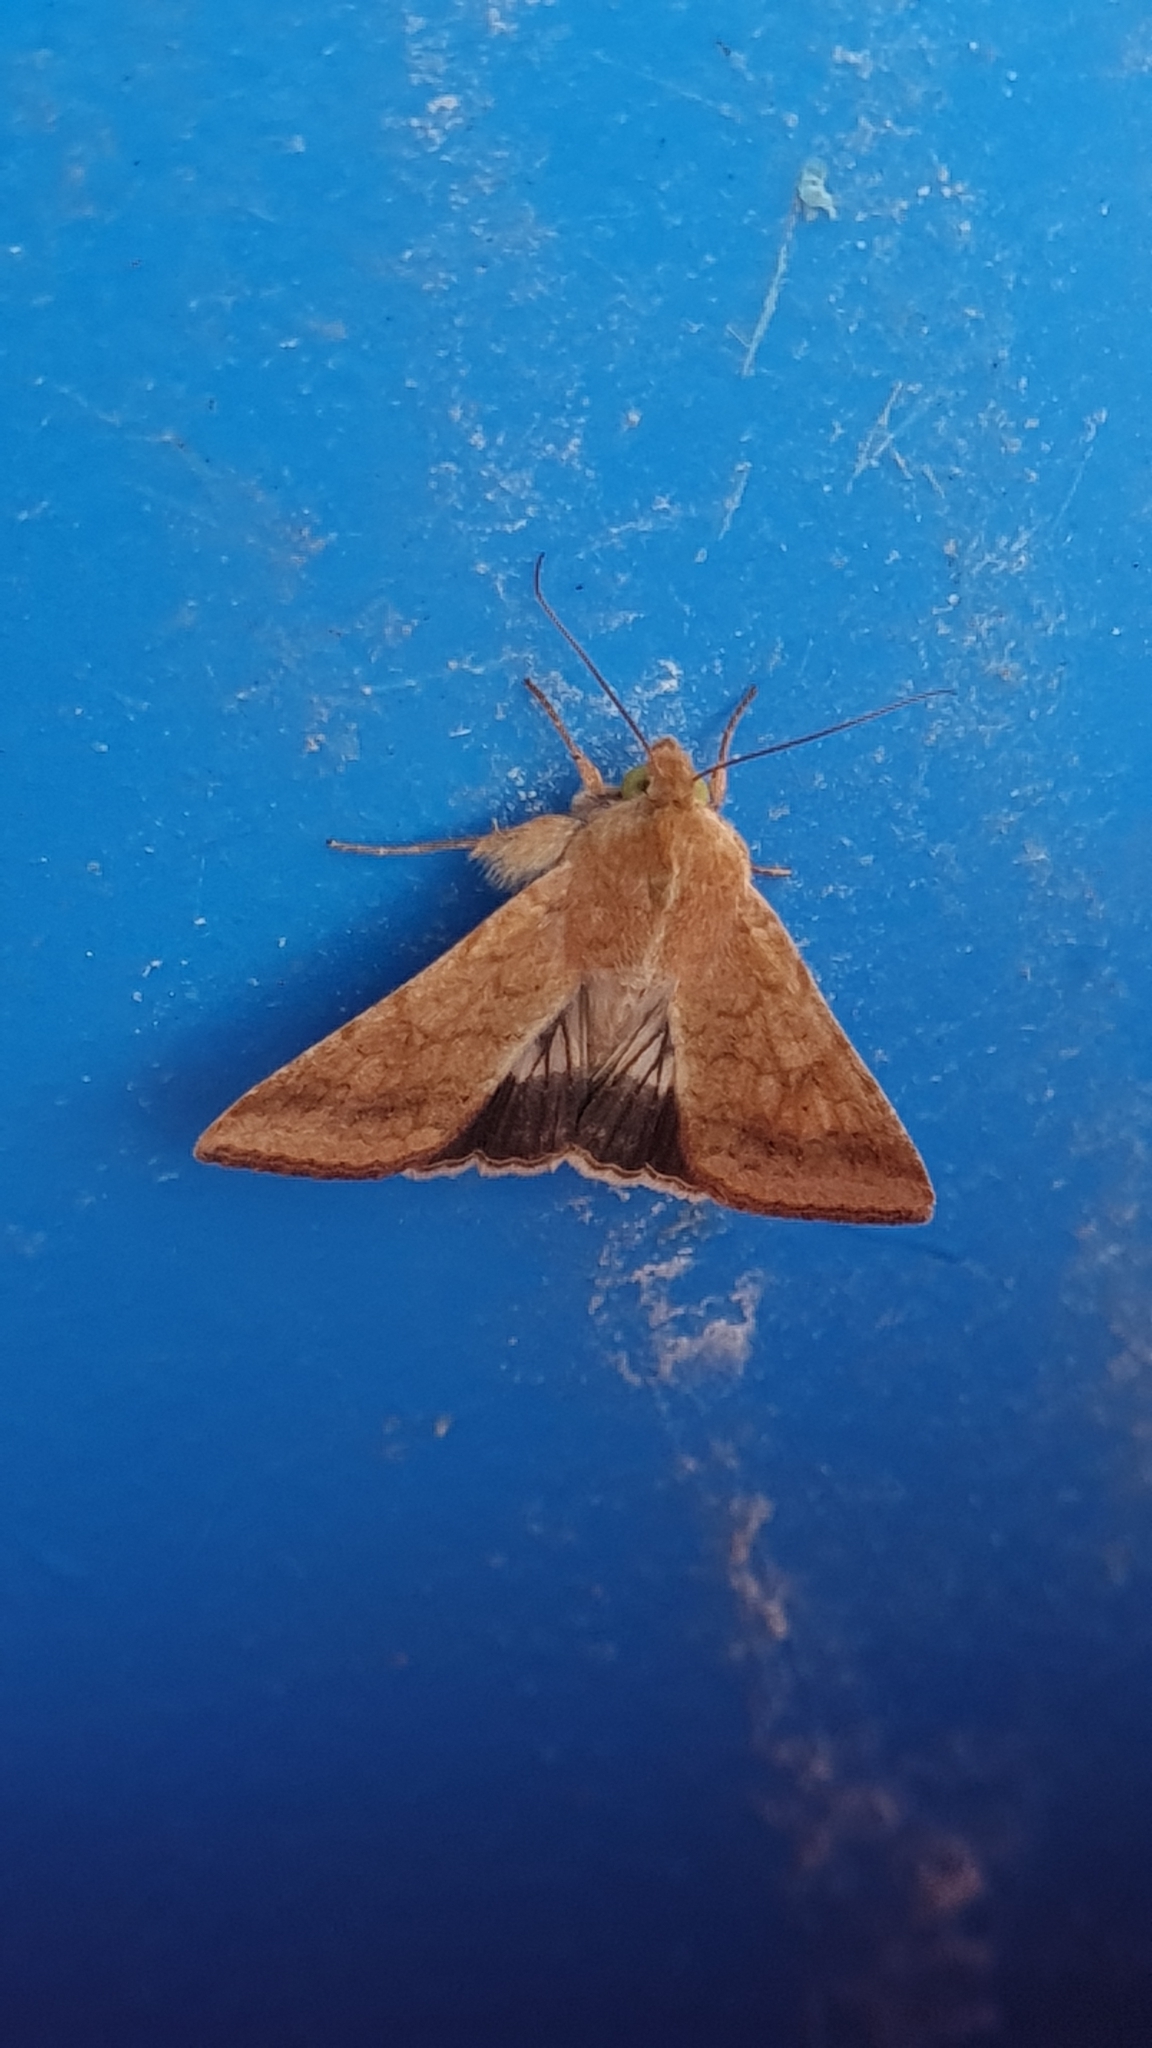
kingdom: Animalia
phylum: Arthropoda
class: Insecta
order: Lepidoptera
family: Noctuidae
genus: Helicoverpa
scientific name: Helicoverpa armigera
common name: Cotton bollworm
